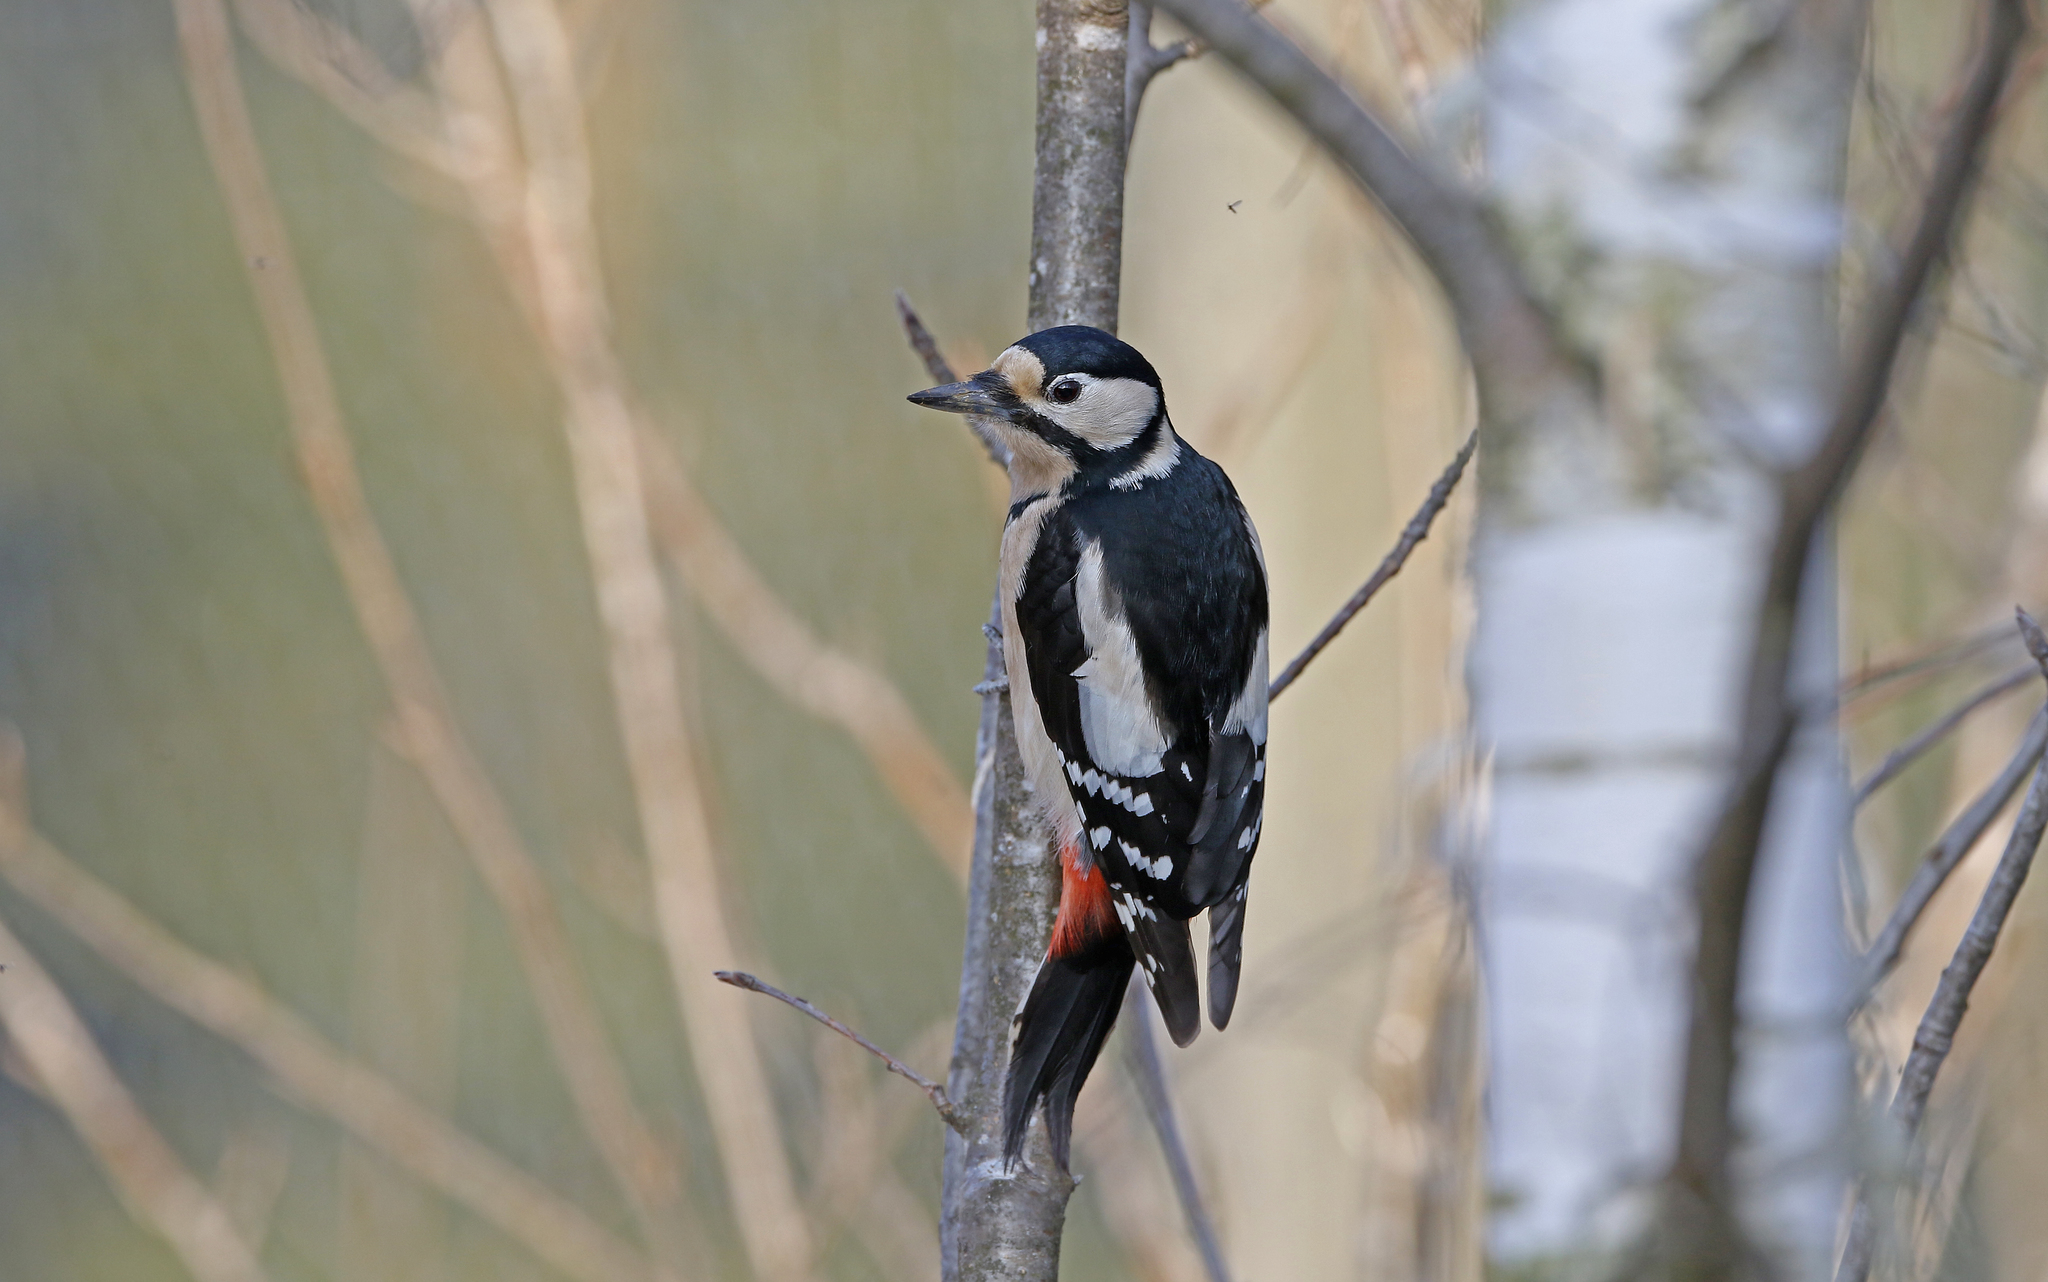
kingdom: Animalia
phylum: Chordata
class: Aves
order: Piciformes
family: Picidae
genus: Dendrocopos
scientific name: Dendrocopos major
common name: Great spotted woodpecker
